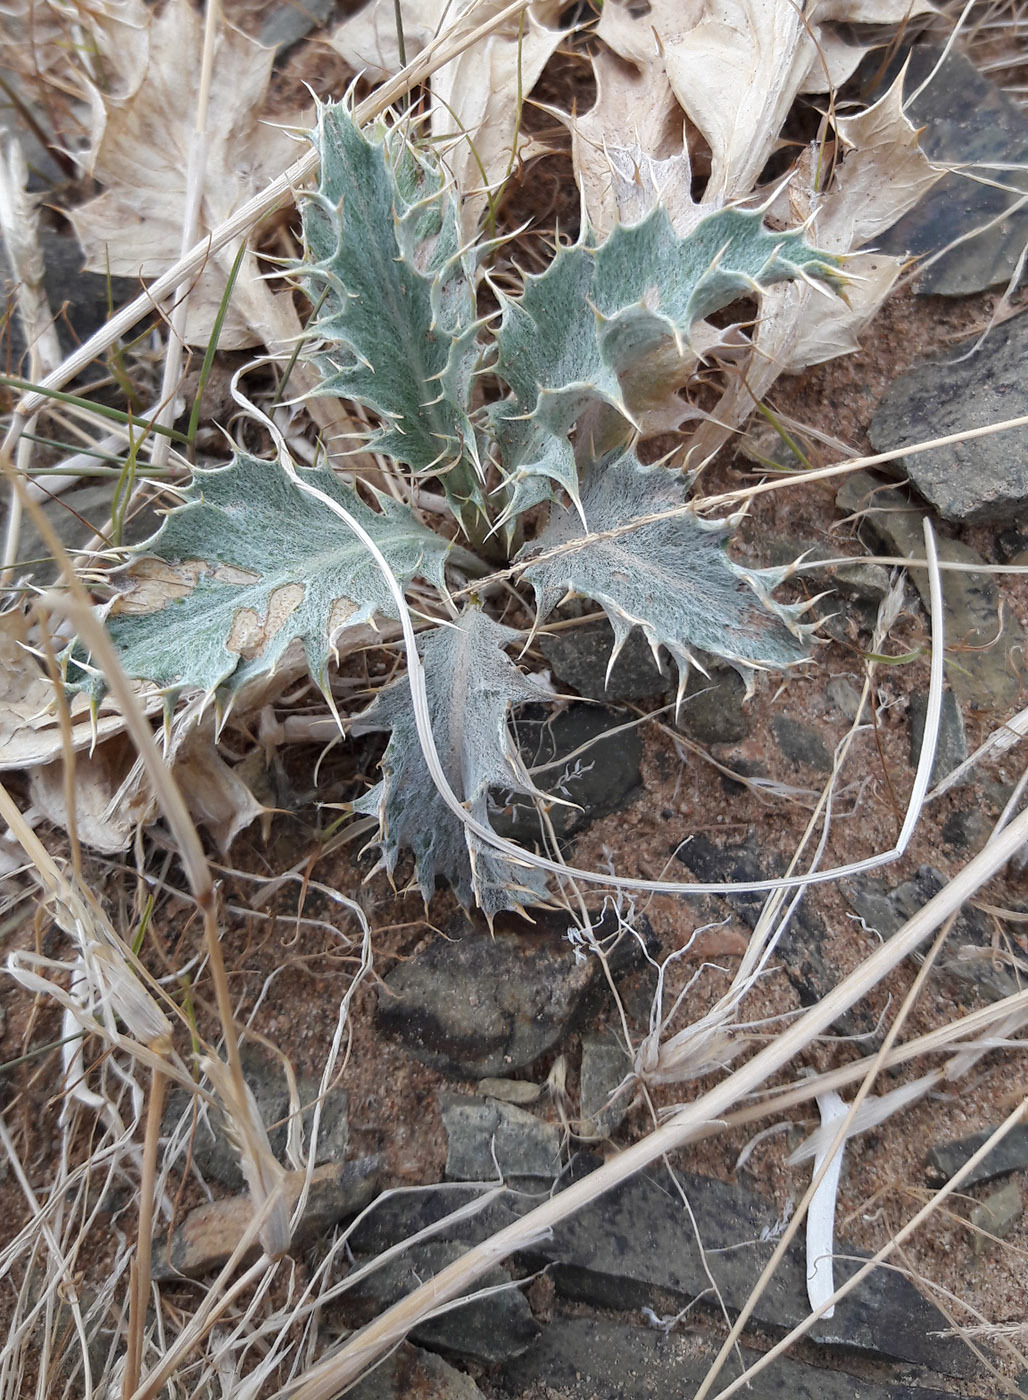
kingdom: Plantae
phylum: Tracheophyta
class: Magnoliopsida
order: Asterales
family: Asteraceae
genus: Tugarinovia
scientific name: Tugarinovia mongolica
